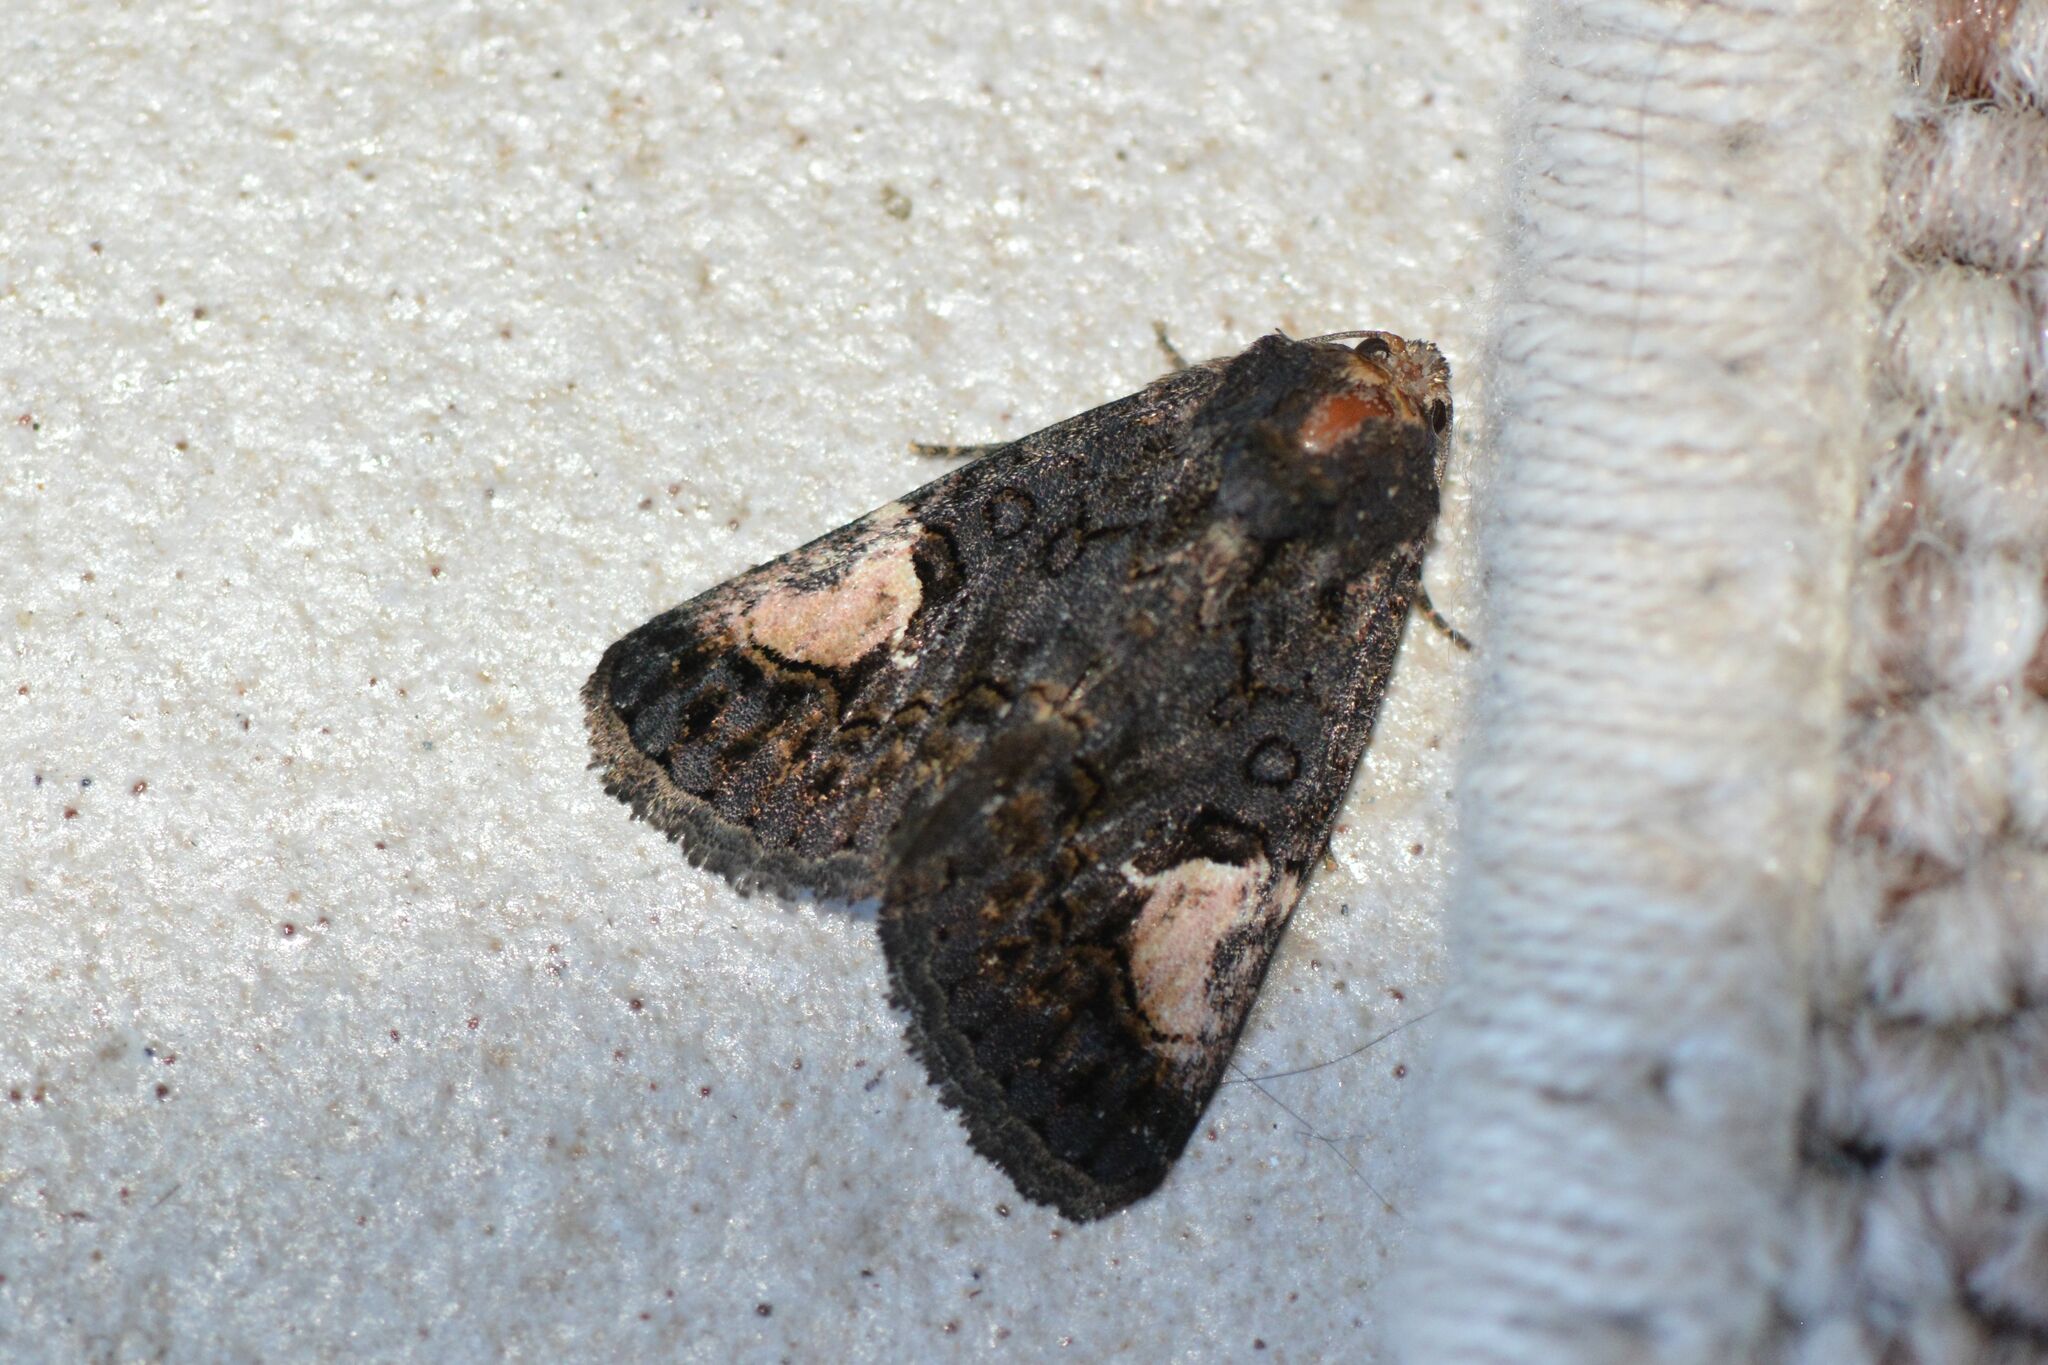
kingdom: Animalia
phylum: Arthropoda
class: Insecta
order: Lepidoptera
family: Noctuidae
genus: Aedia
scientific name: Aedia funesta
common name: The druid
